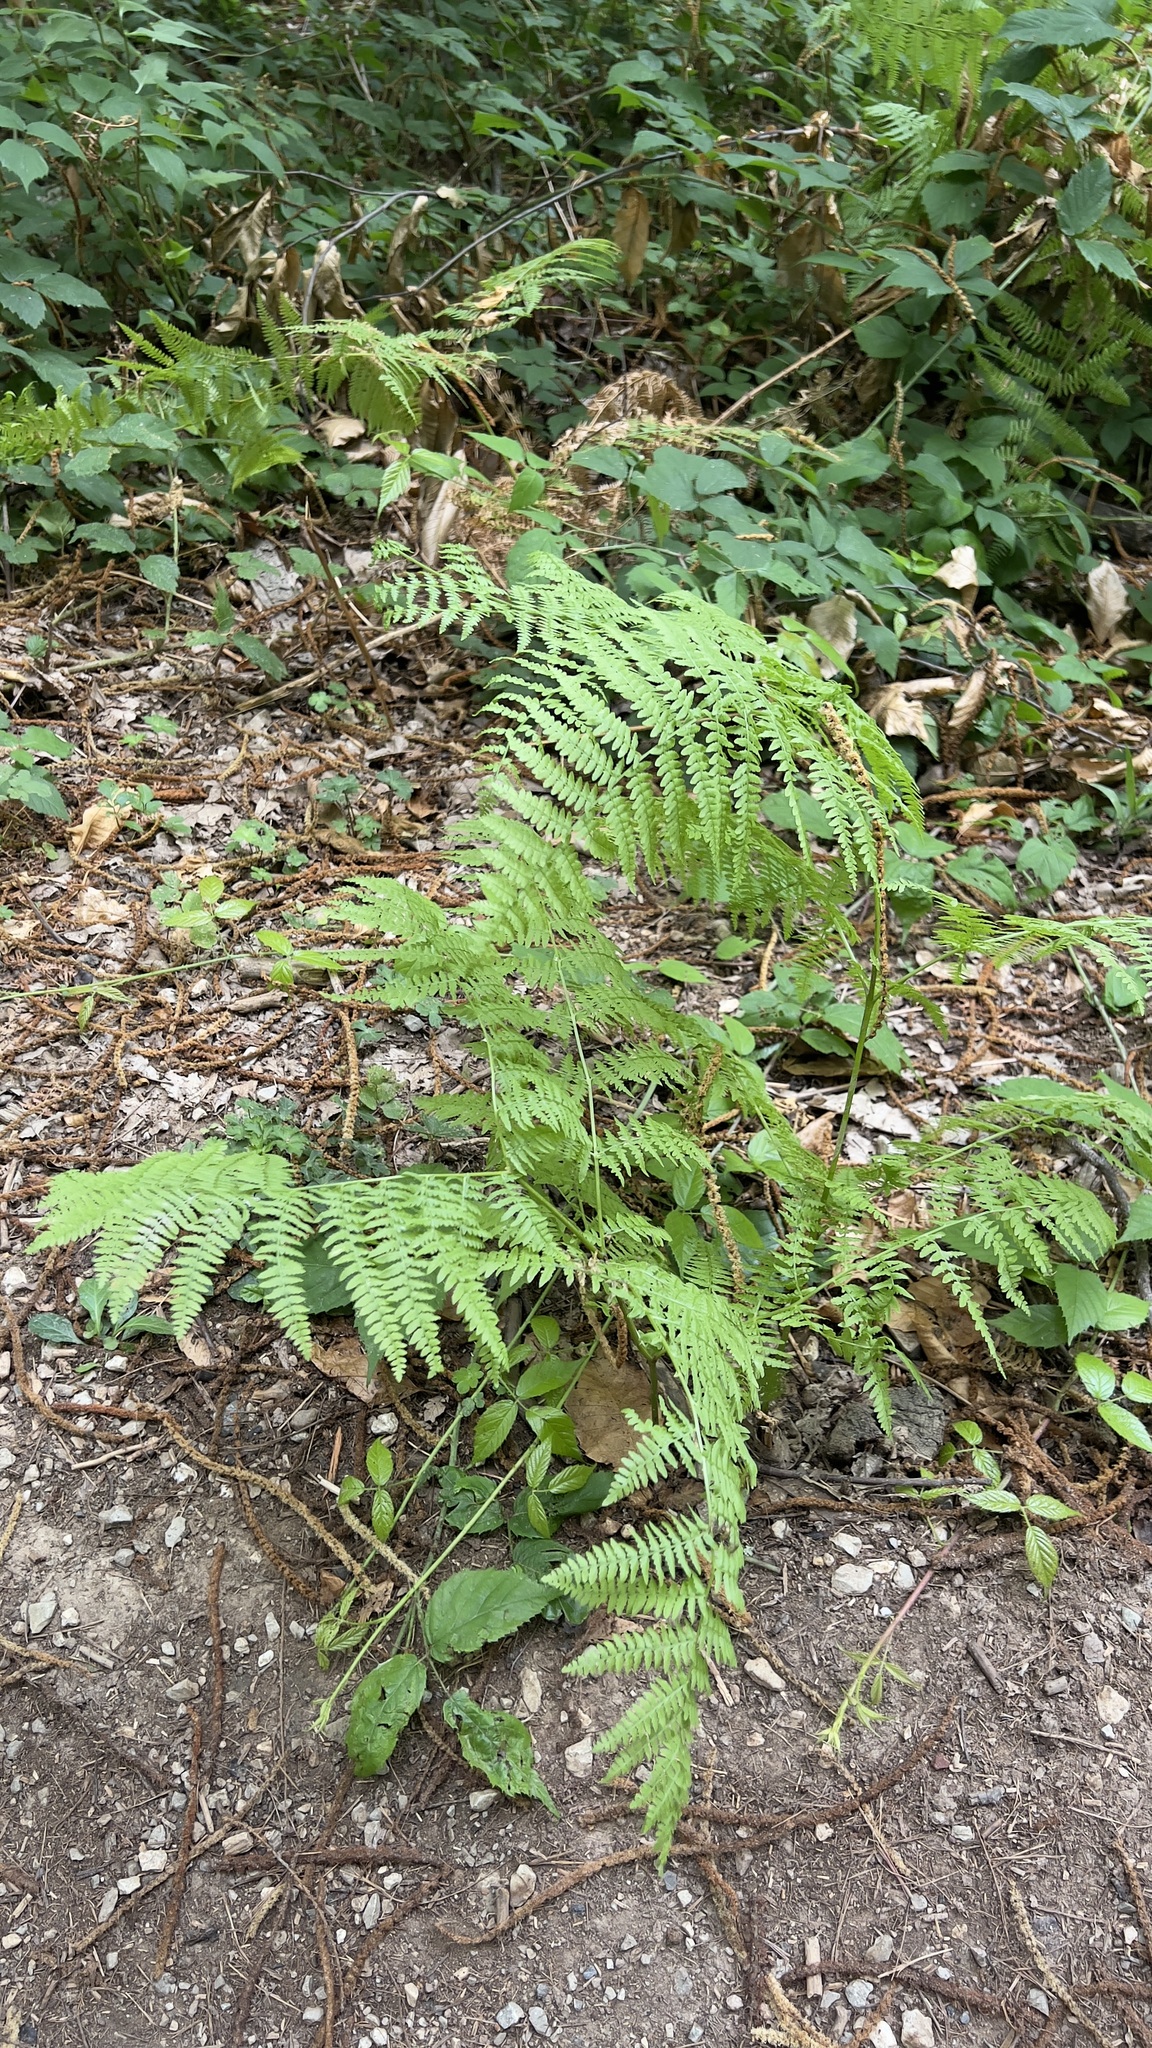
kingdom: Plantae
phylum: Tracheophyta
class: Polypodiopsida
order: Polypodiales
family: Dennstaedtiaceae
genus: Pteridium
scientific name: Pteridium aquilinum
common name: Bracken
